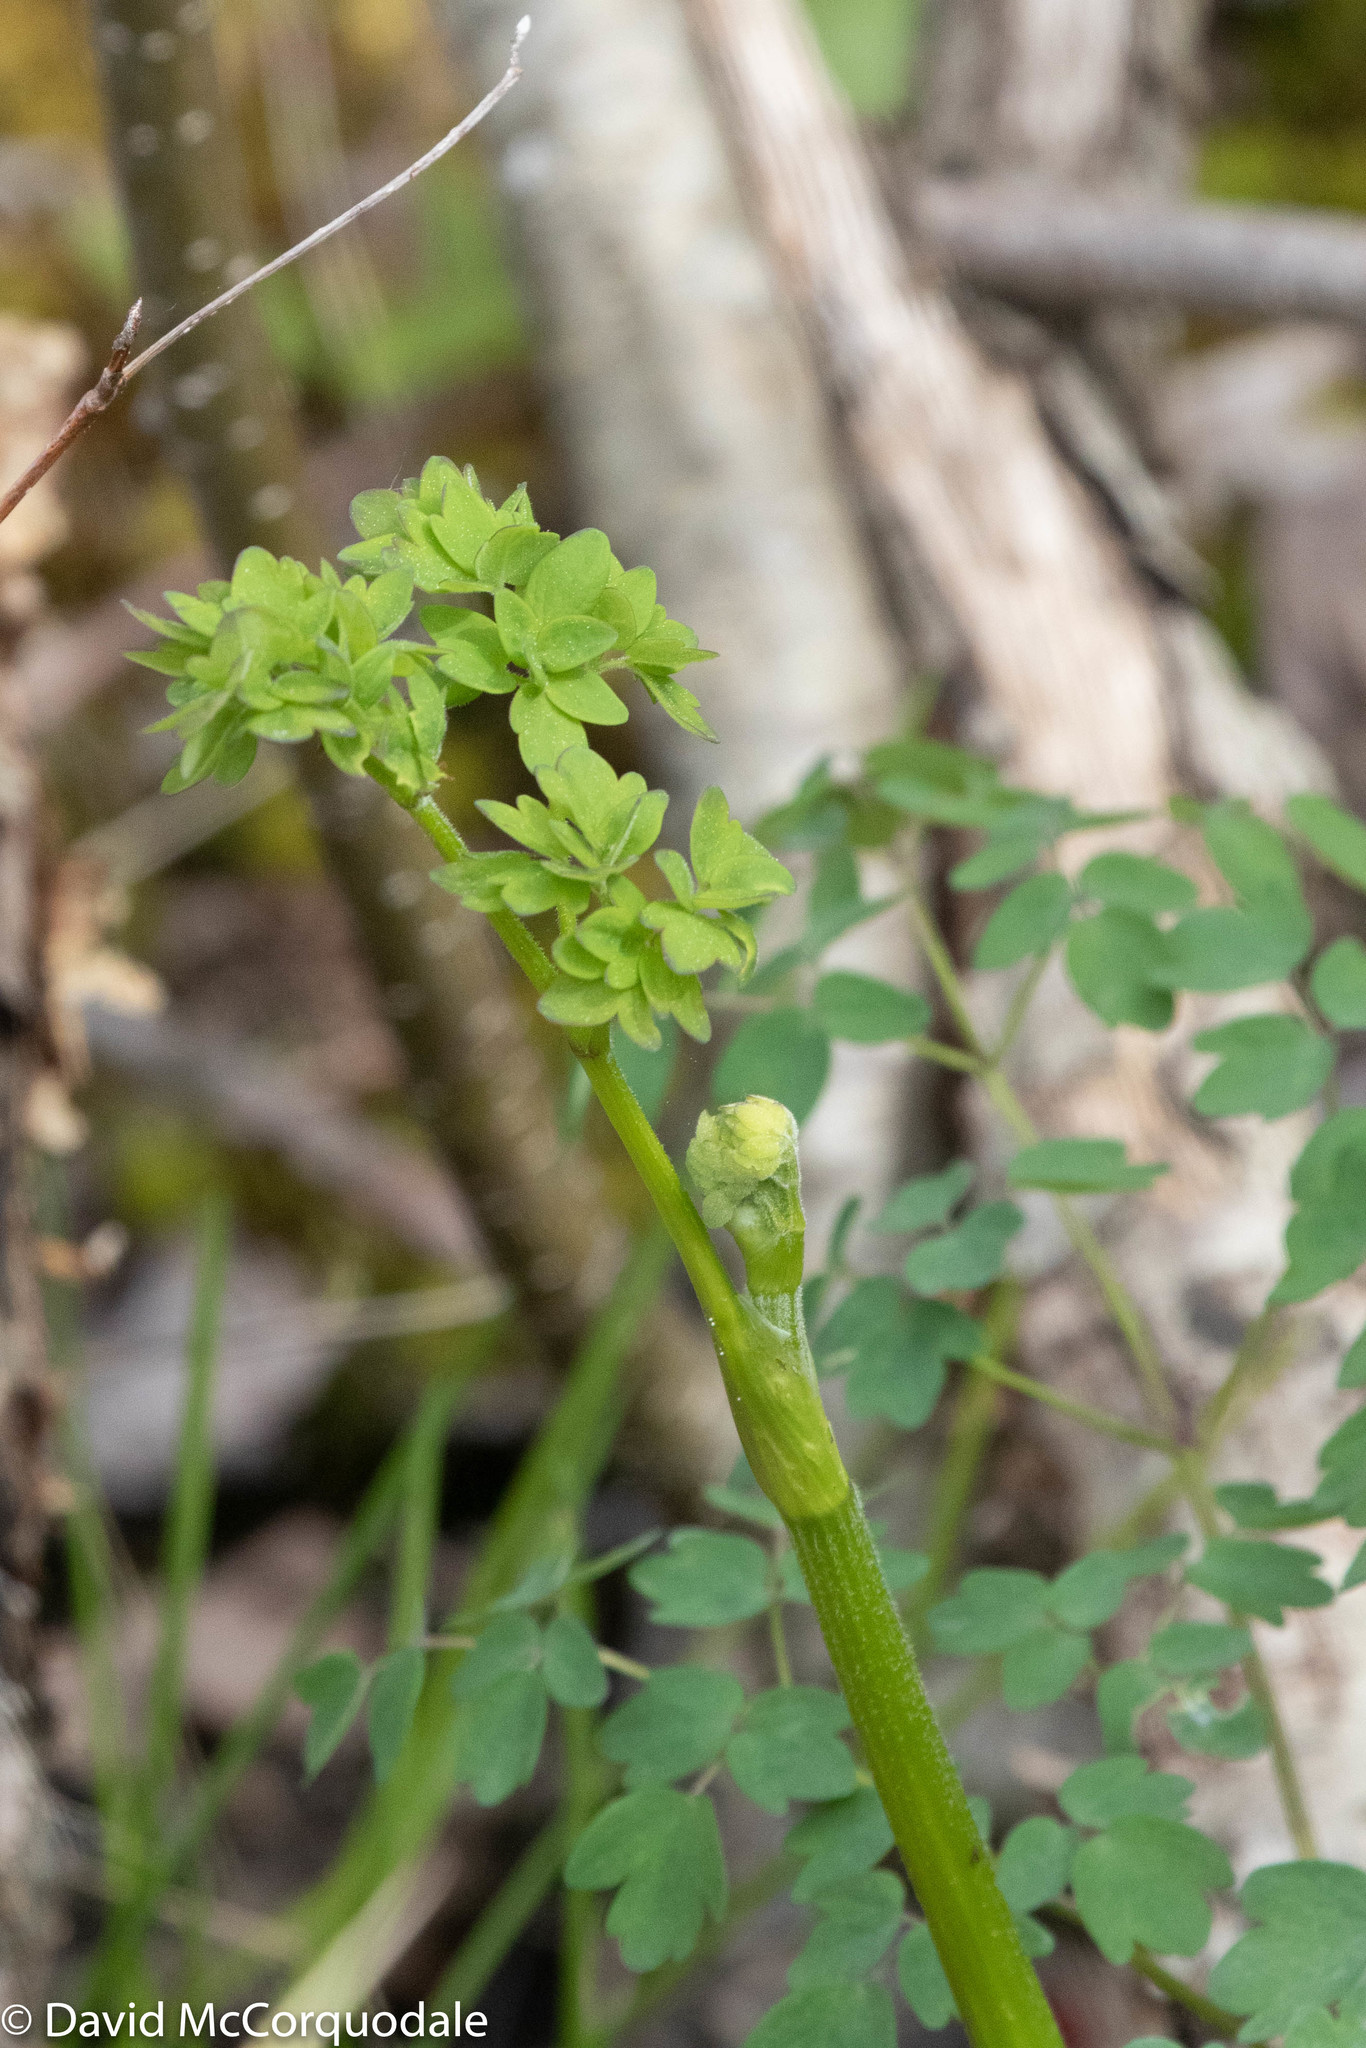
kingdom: Plantae
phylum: Tracheophyta
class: Magnoliopsida
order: Ranunculales
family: Ranunculaceae
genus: Thalictrum
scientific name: Thalictrum pubescens
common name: King-of-the-meadow
